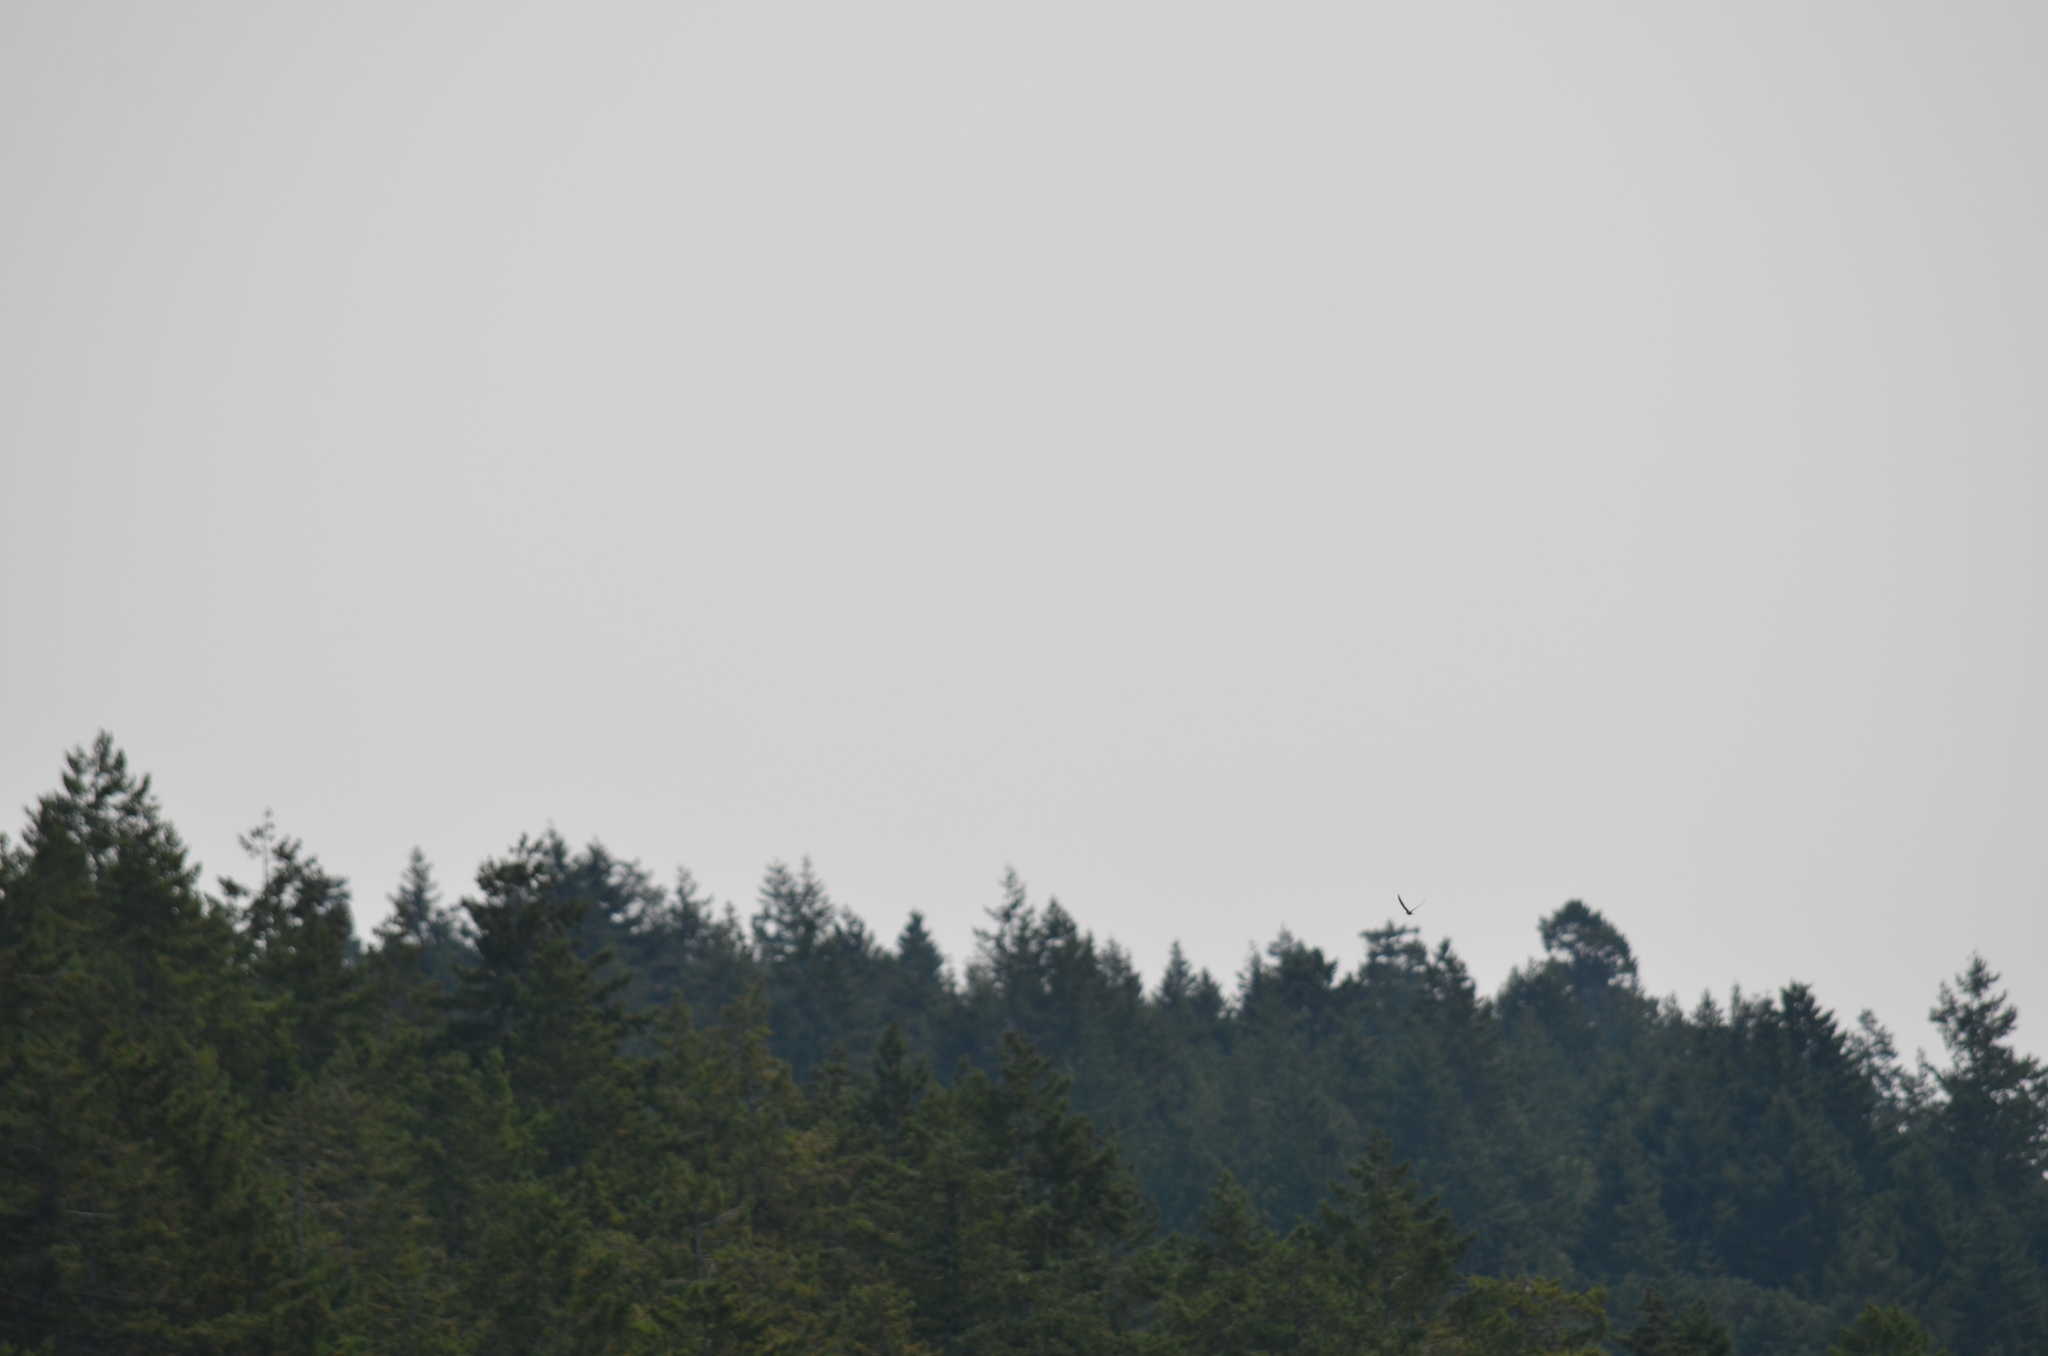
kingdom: Animalia
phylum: Chordata
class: Aves
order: Passeriformes
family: Hirundinidae
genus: Hirundo
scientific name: Hirundo rustica
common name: Barn swallow
